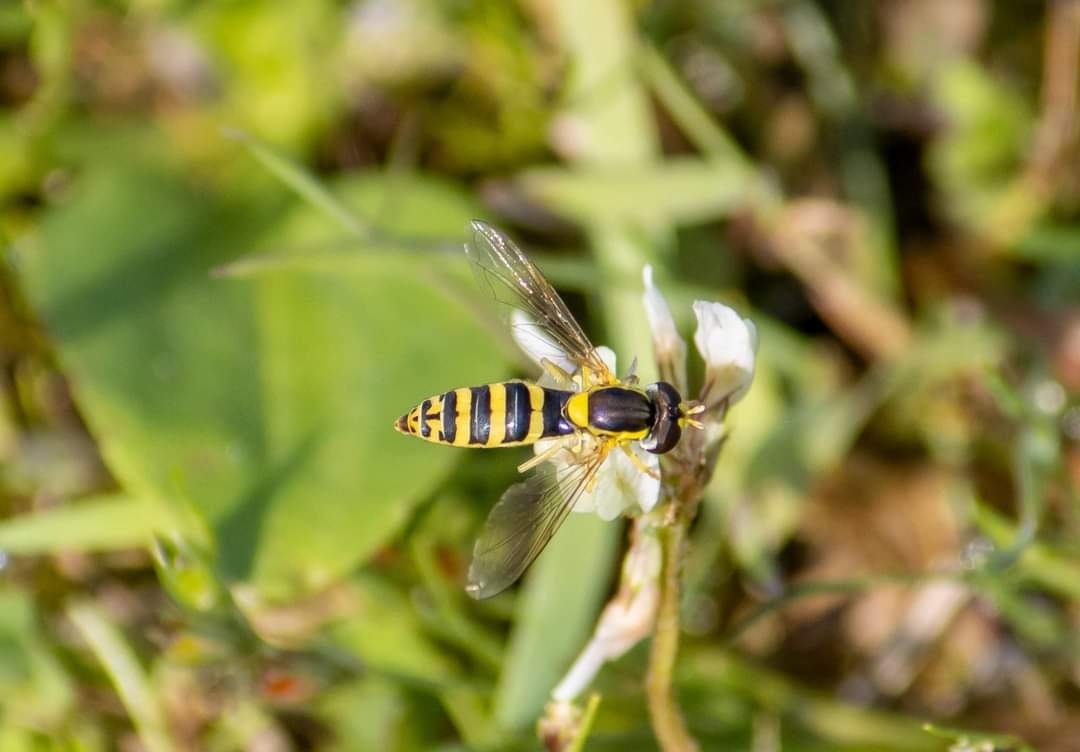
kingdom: Animalia
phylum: Arthropoda
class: Insecta
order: Diptera
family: Syrphidae
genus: Sphaerophoria
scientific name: Sphaerophoria
